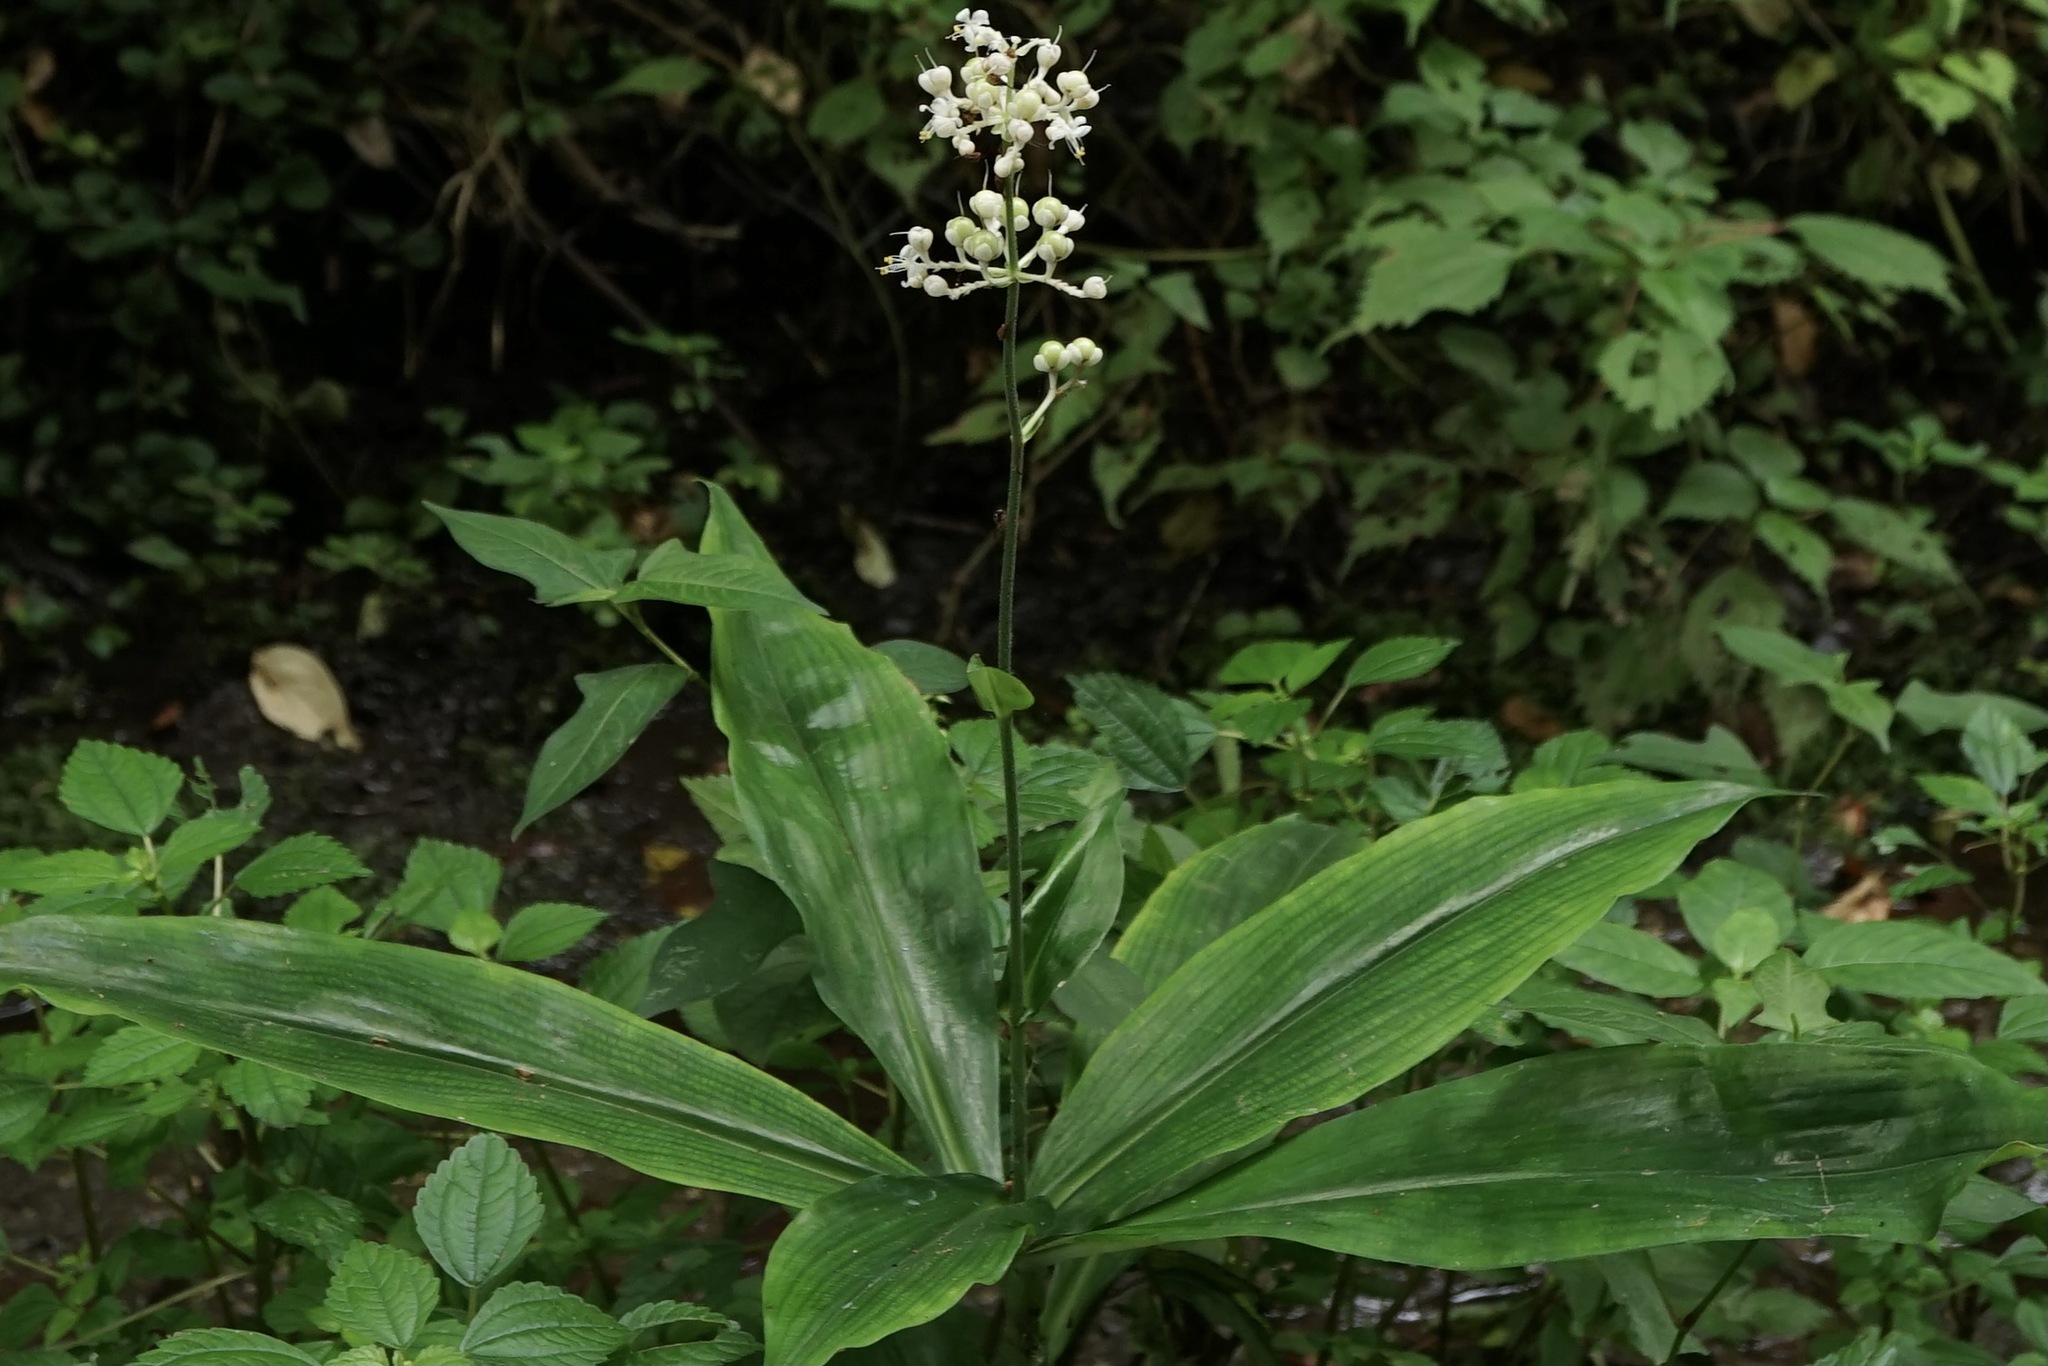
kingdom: Plantae
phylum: Tracheophyta
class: Liliopsida
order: Commelinales
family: Commelinaceae
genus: Pollia
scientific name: Pollia japonica
